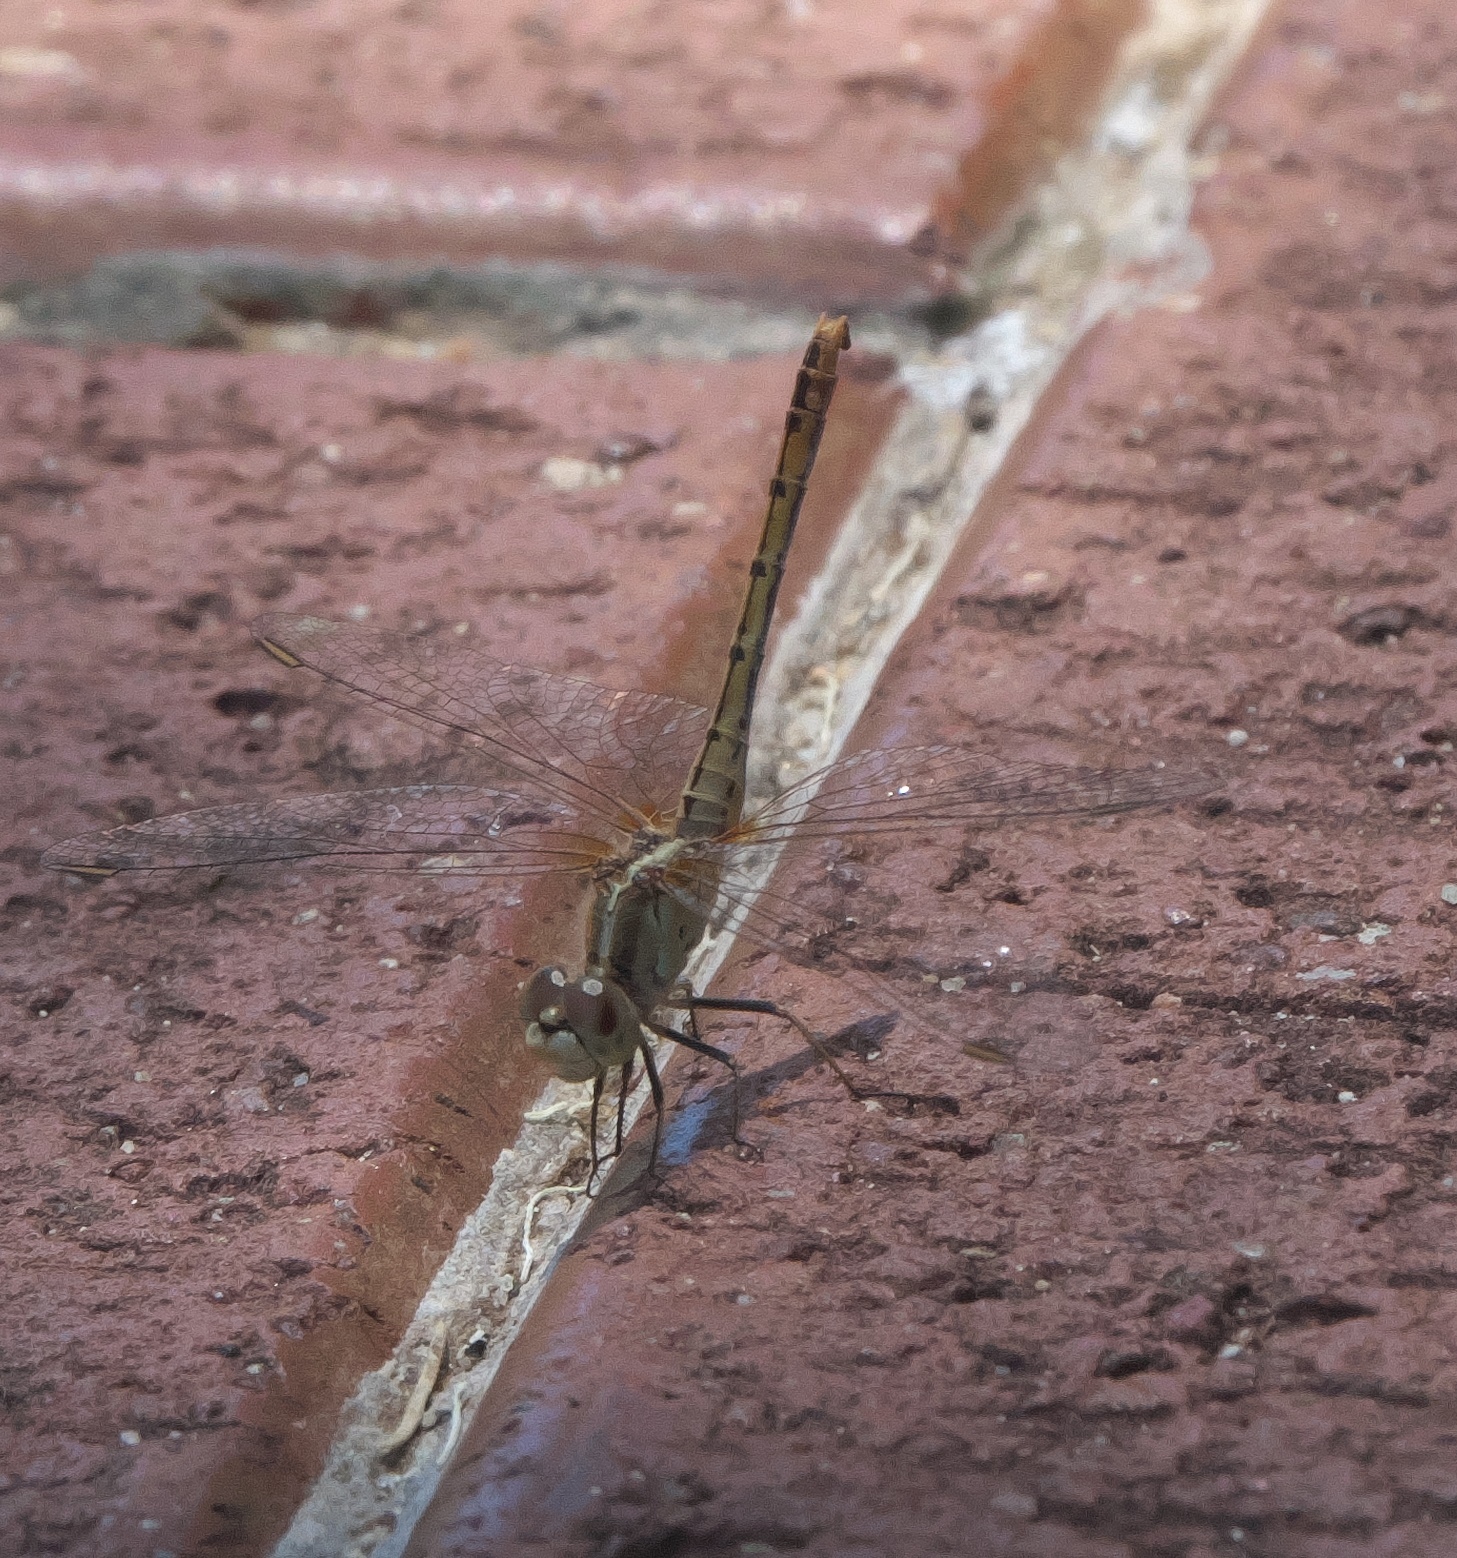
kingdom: Animalia
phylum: Arthropoda
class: Insecta
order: Odonata
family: Libellulidae
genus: Diplacodes
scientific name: Diplacodes bipunctata
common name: Red percher dragonfly
